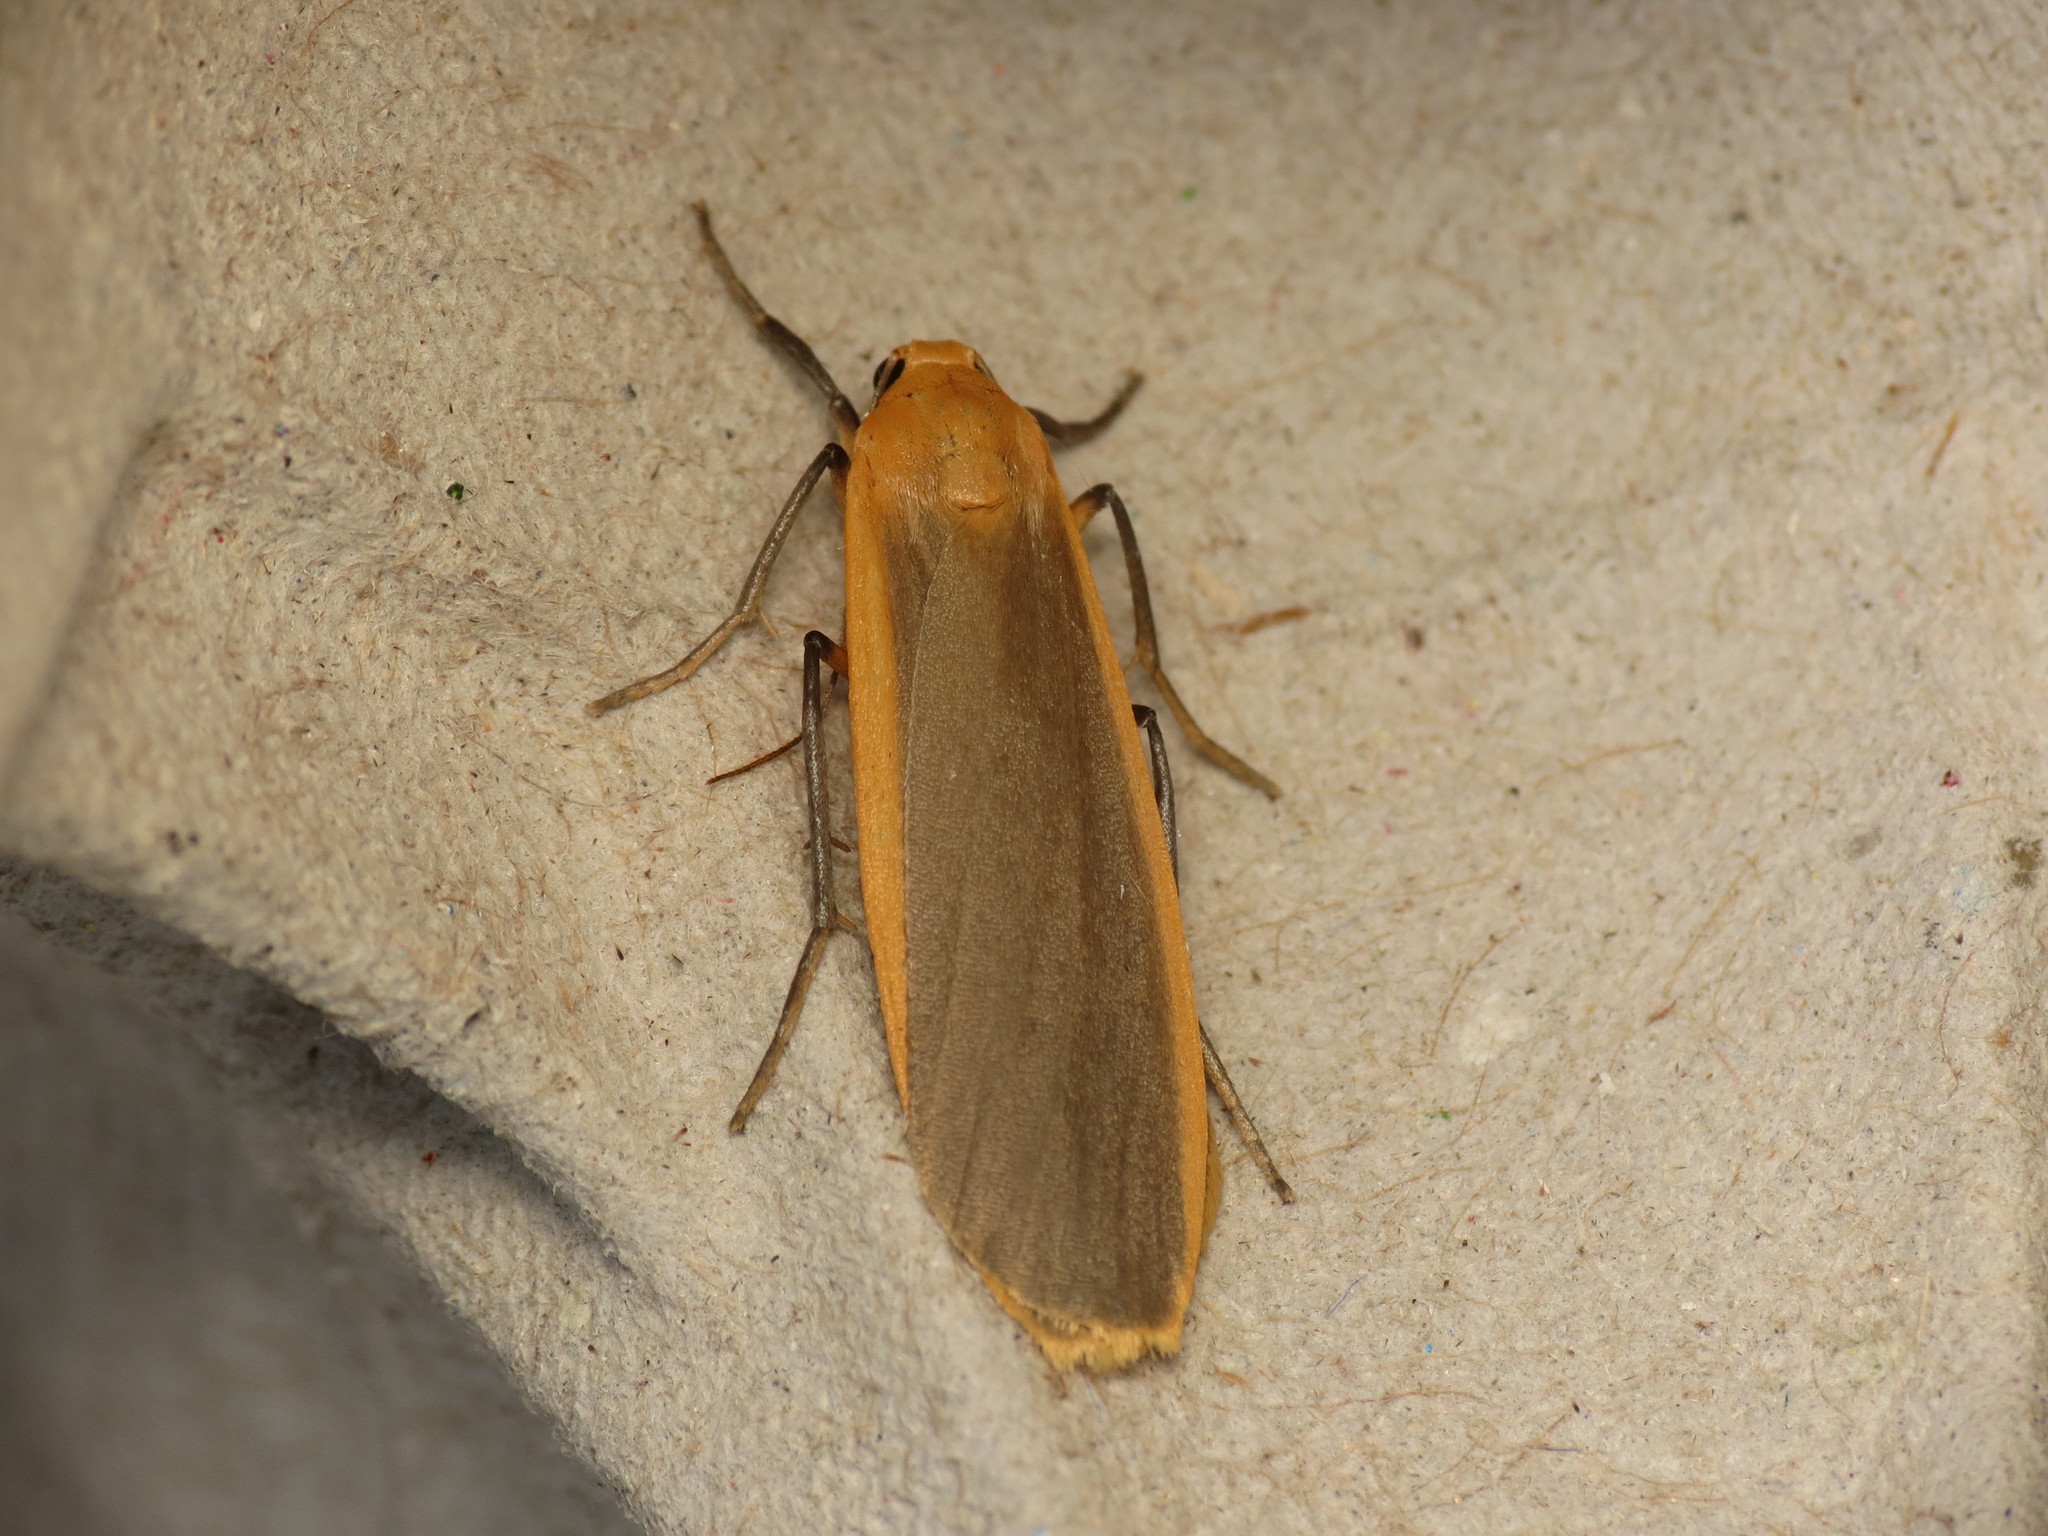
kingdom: Animalia
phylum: Arthropoda
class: Insecta
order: Lepidoptera
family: Erebidae
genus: Katha
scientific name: Katha depressa
